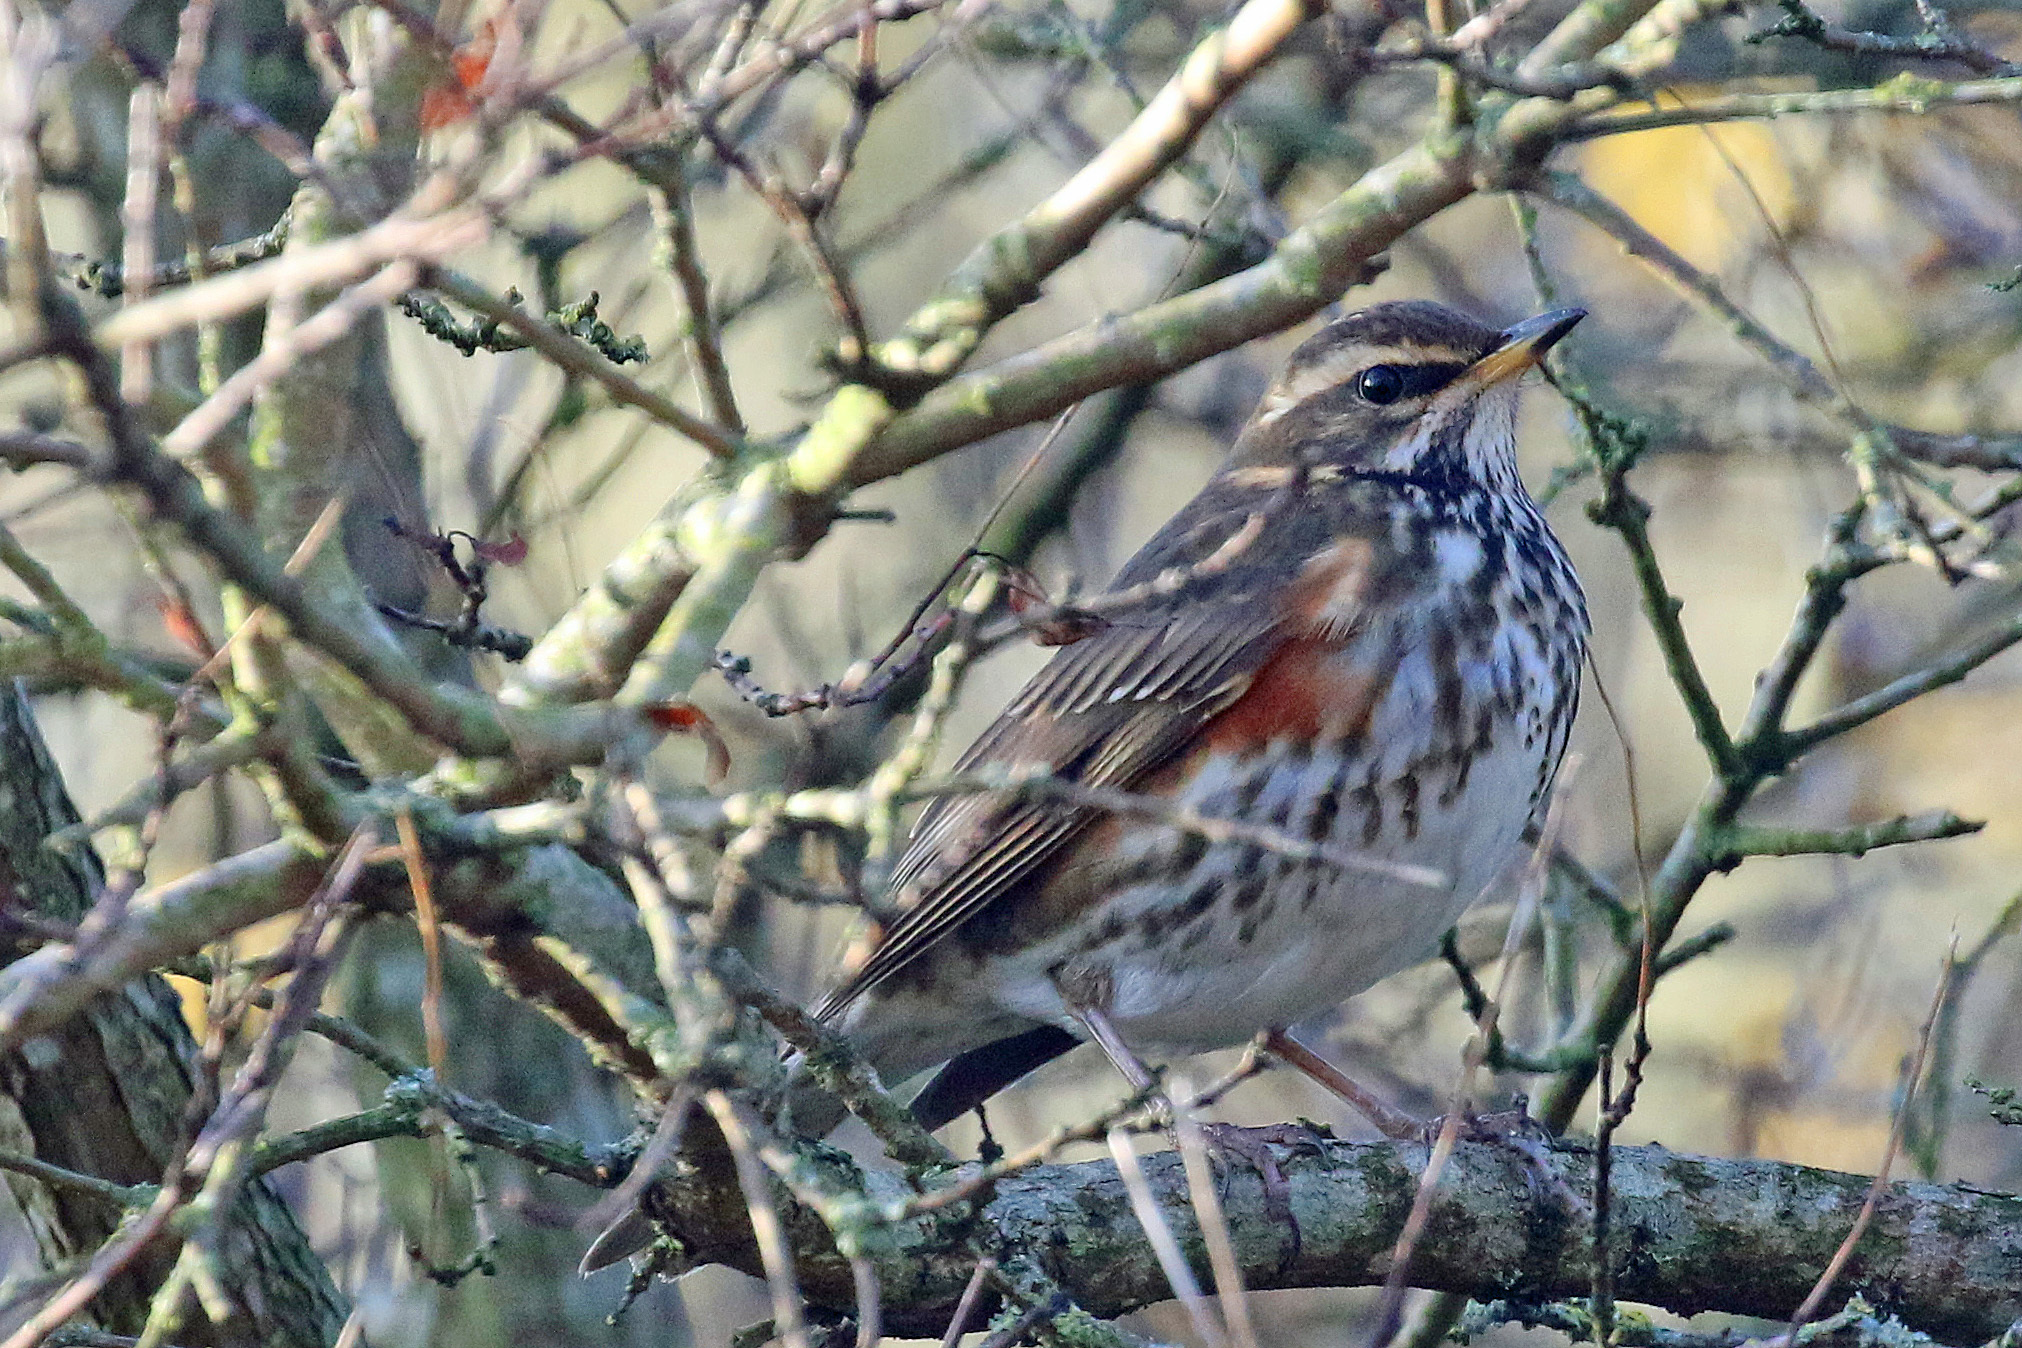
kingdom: Animalia
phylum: Chordata
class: Aves
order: Passeriformes
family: Turdidae
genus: Turdus
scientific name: Turdus iliacus
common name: Redwing
